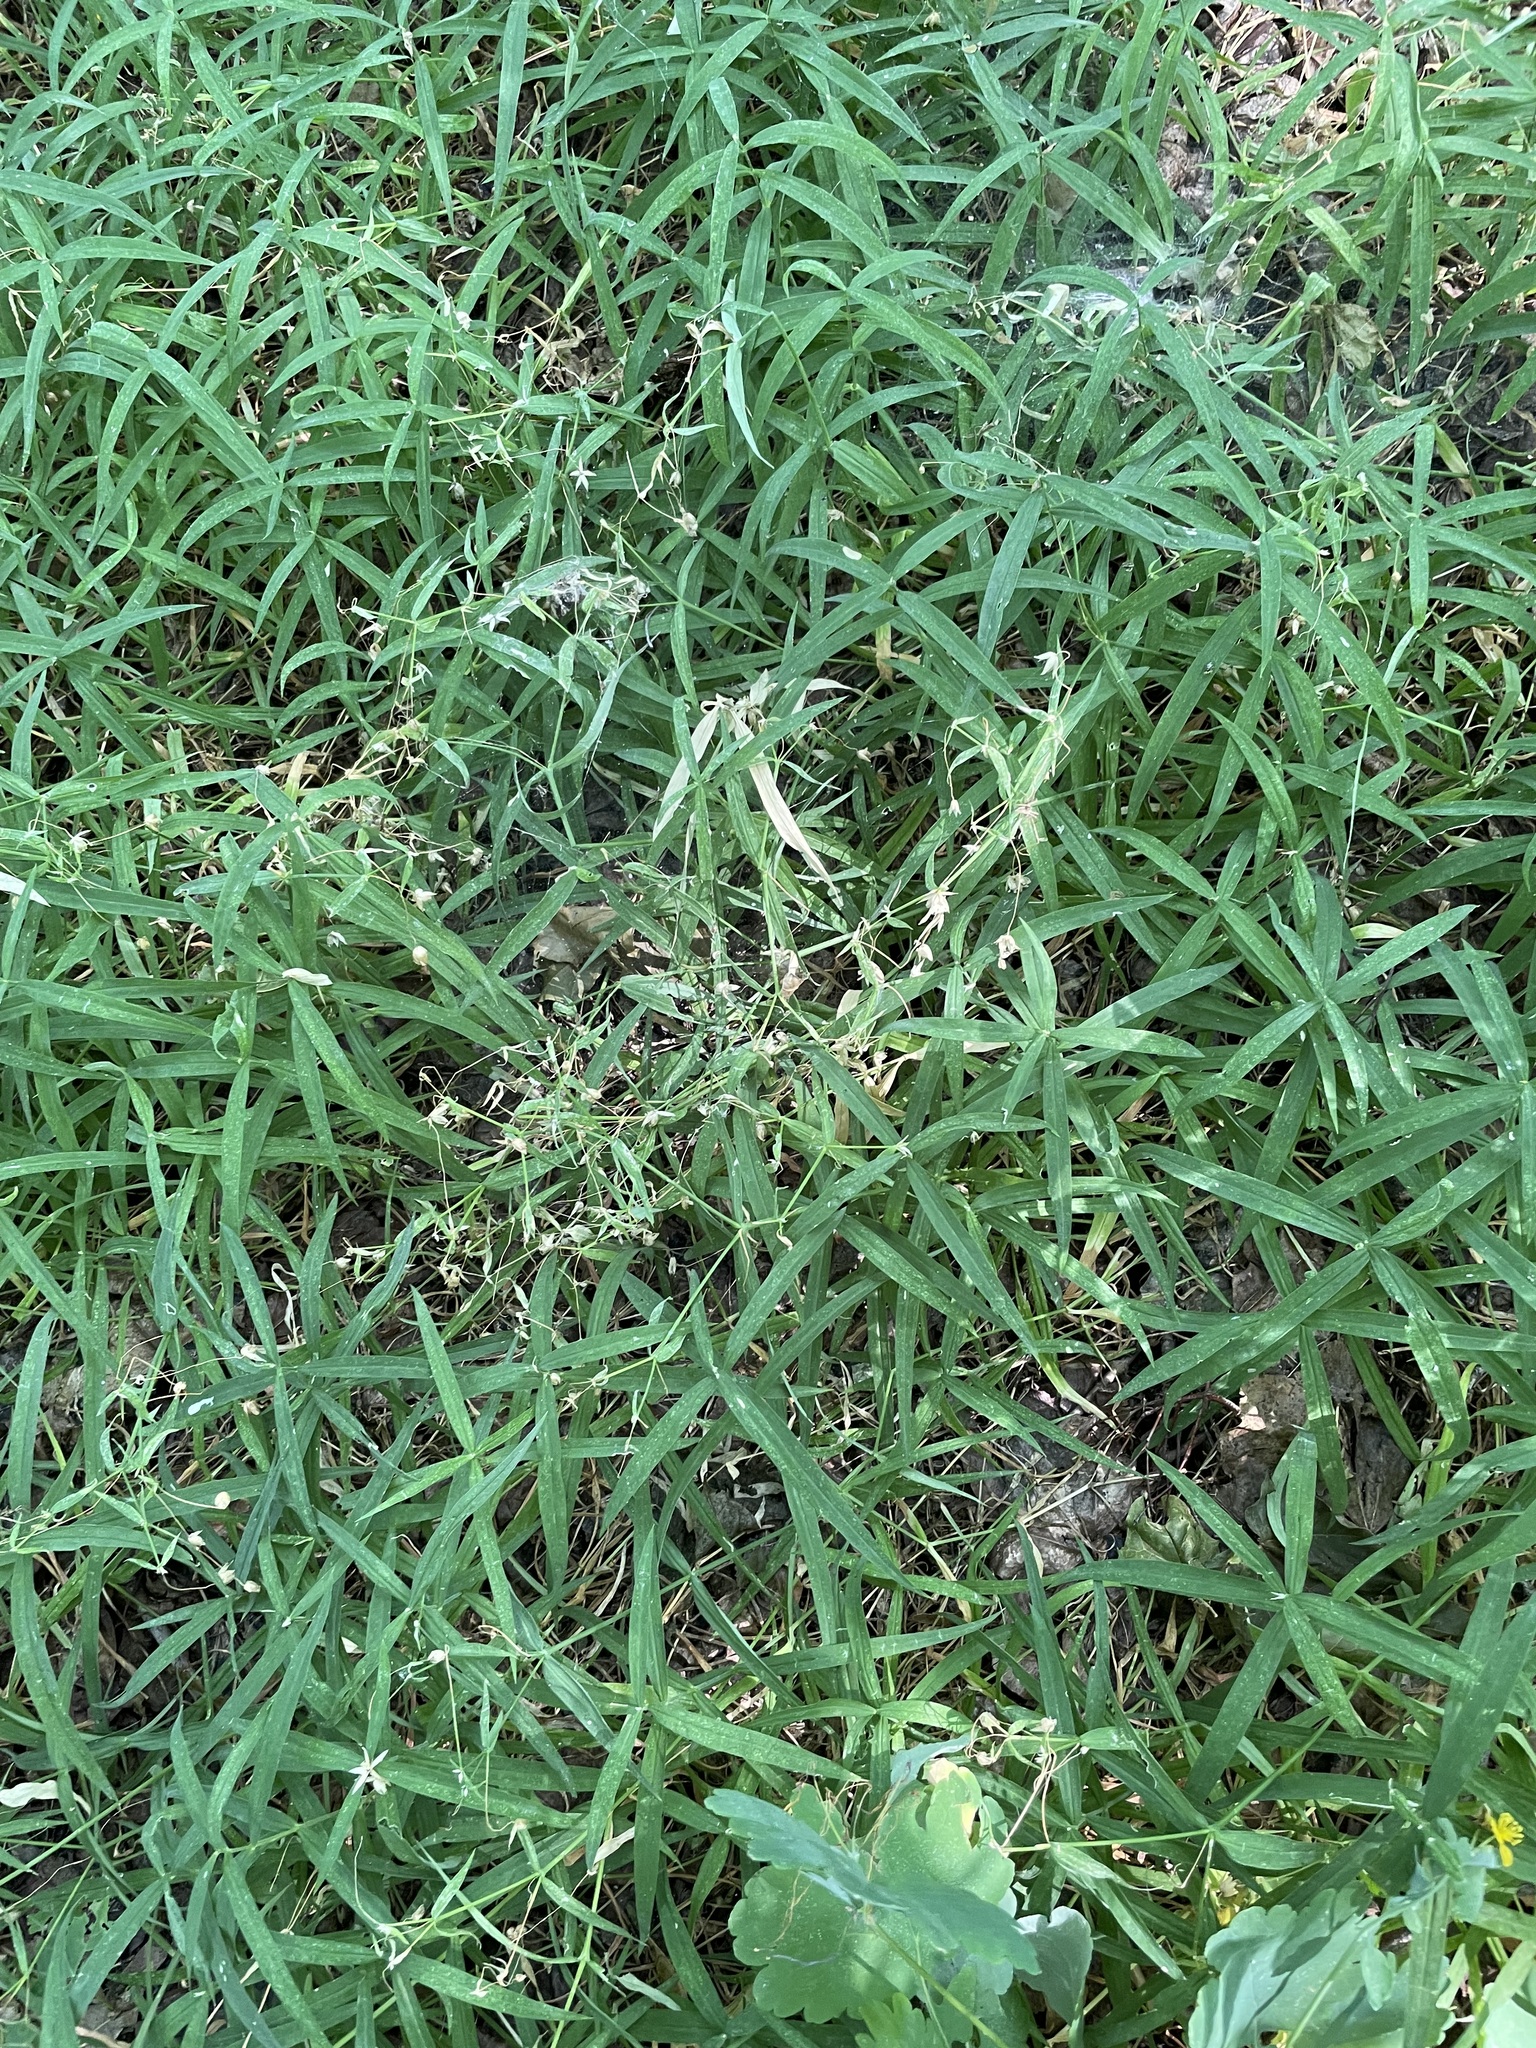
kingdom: Plantae
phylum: Tracheophyta
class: Magnoliopsida
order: Caryophyllales
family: Caryophyllaceae
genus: Rabelera
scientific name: Rabelera holostea
